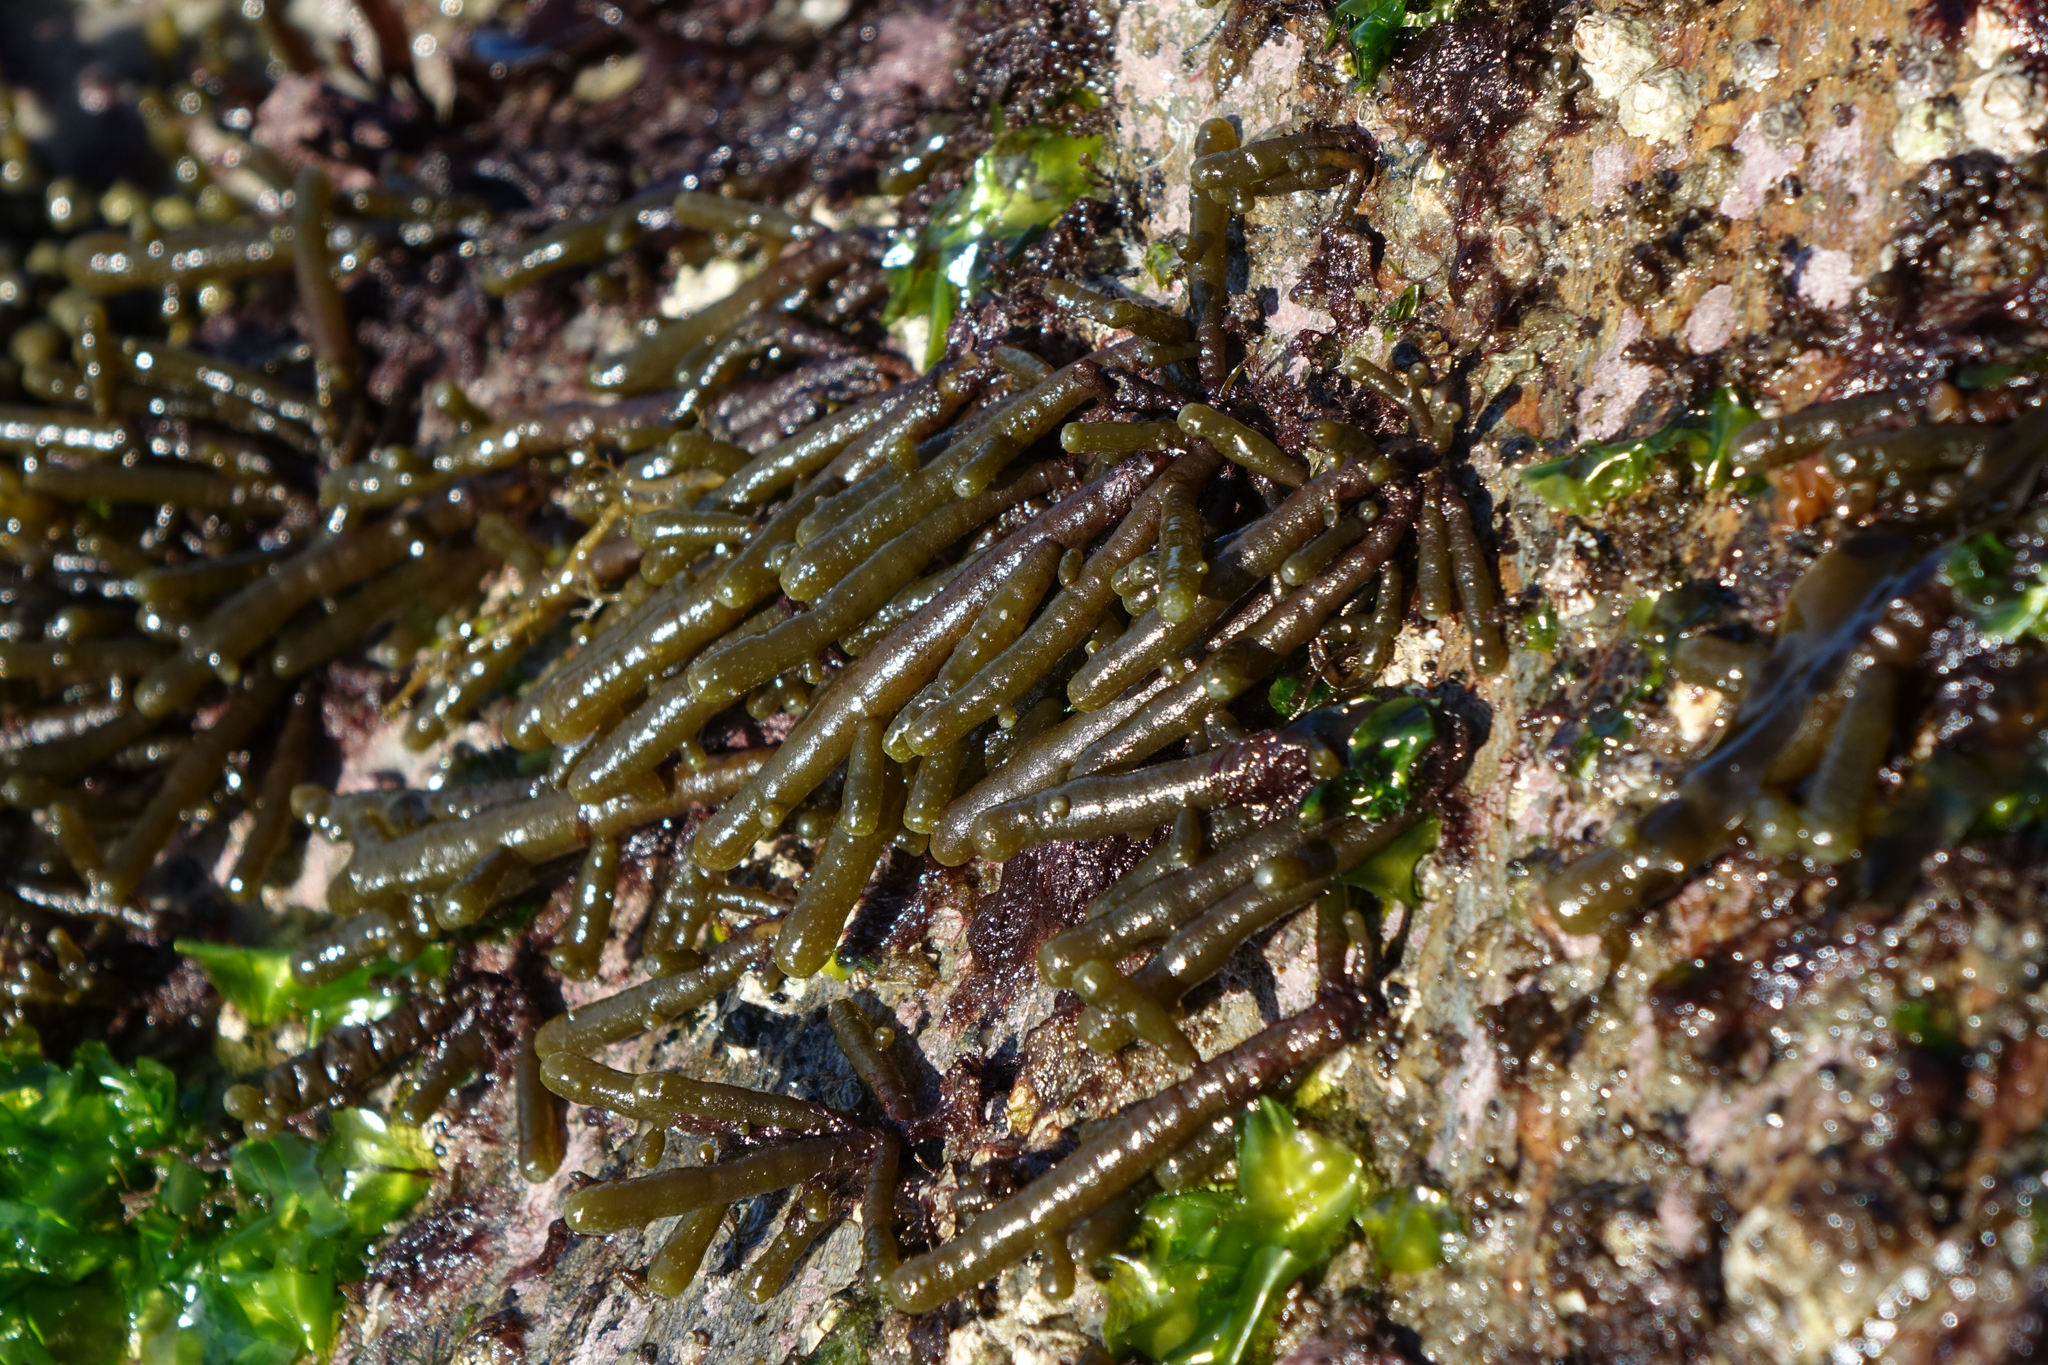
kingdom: Chromista
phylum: Ochrophyta
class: Phaeophyceae
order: Scytothamnales
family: Splachnidiaceae
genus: Splachnidium
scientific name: Splachnidium rugosum
